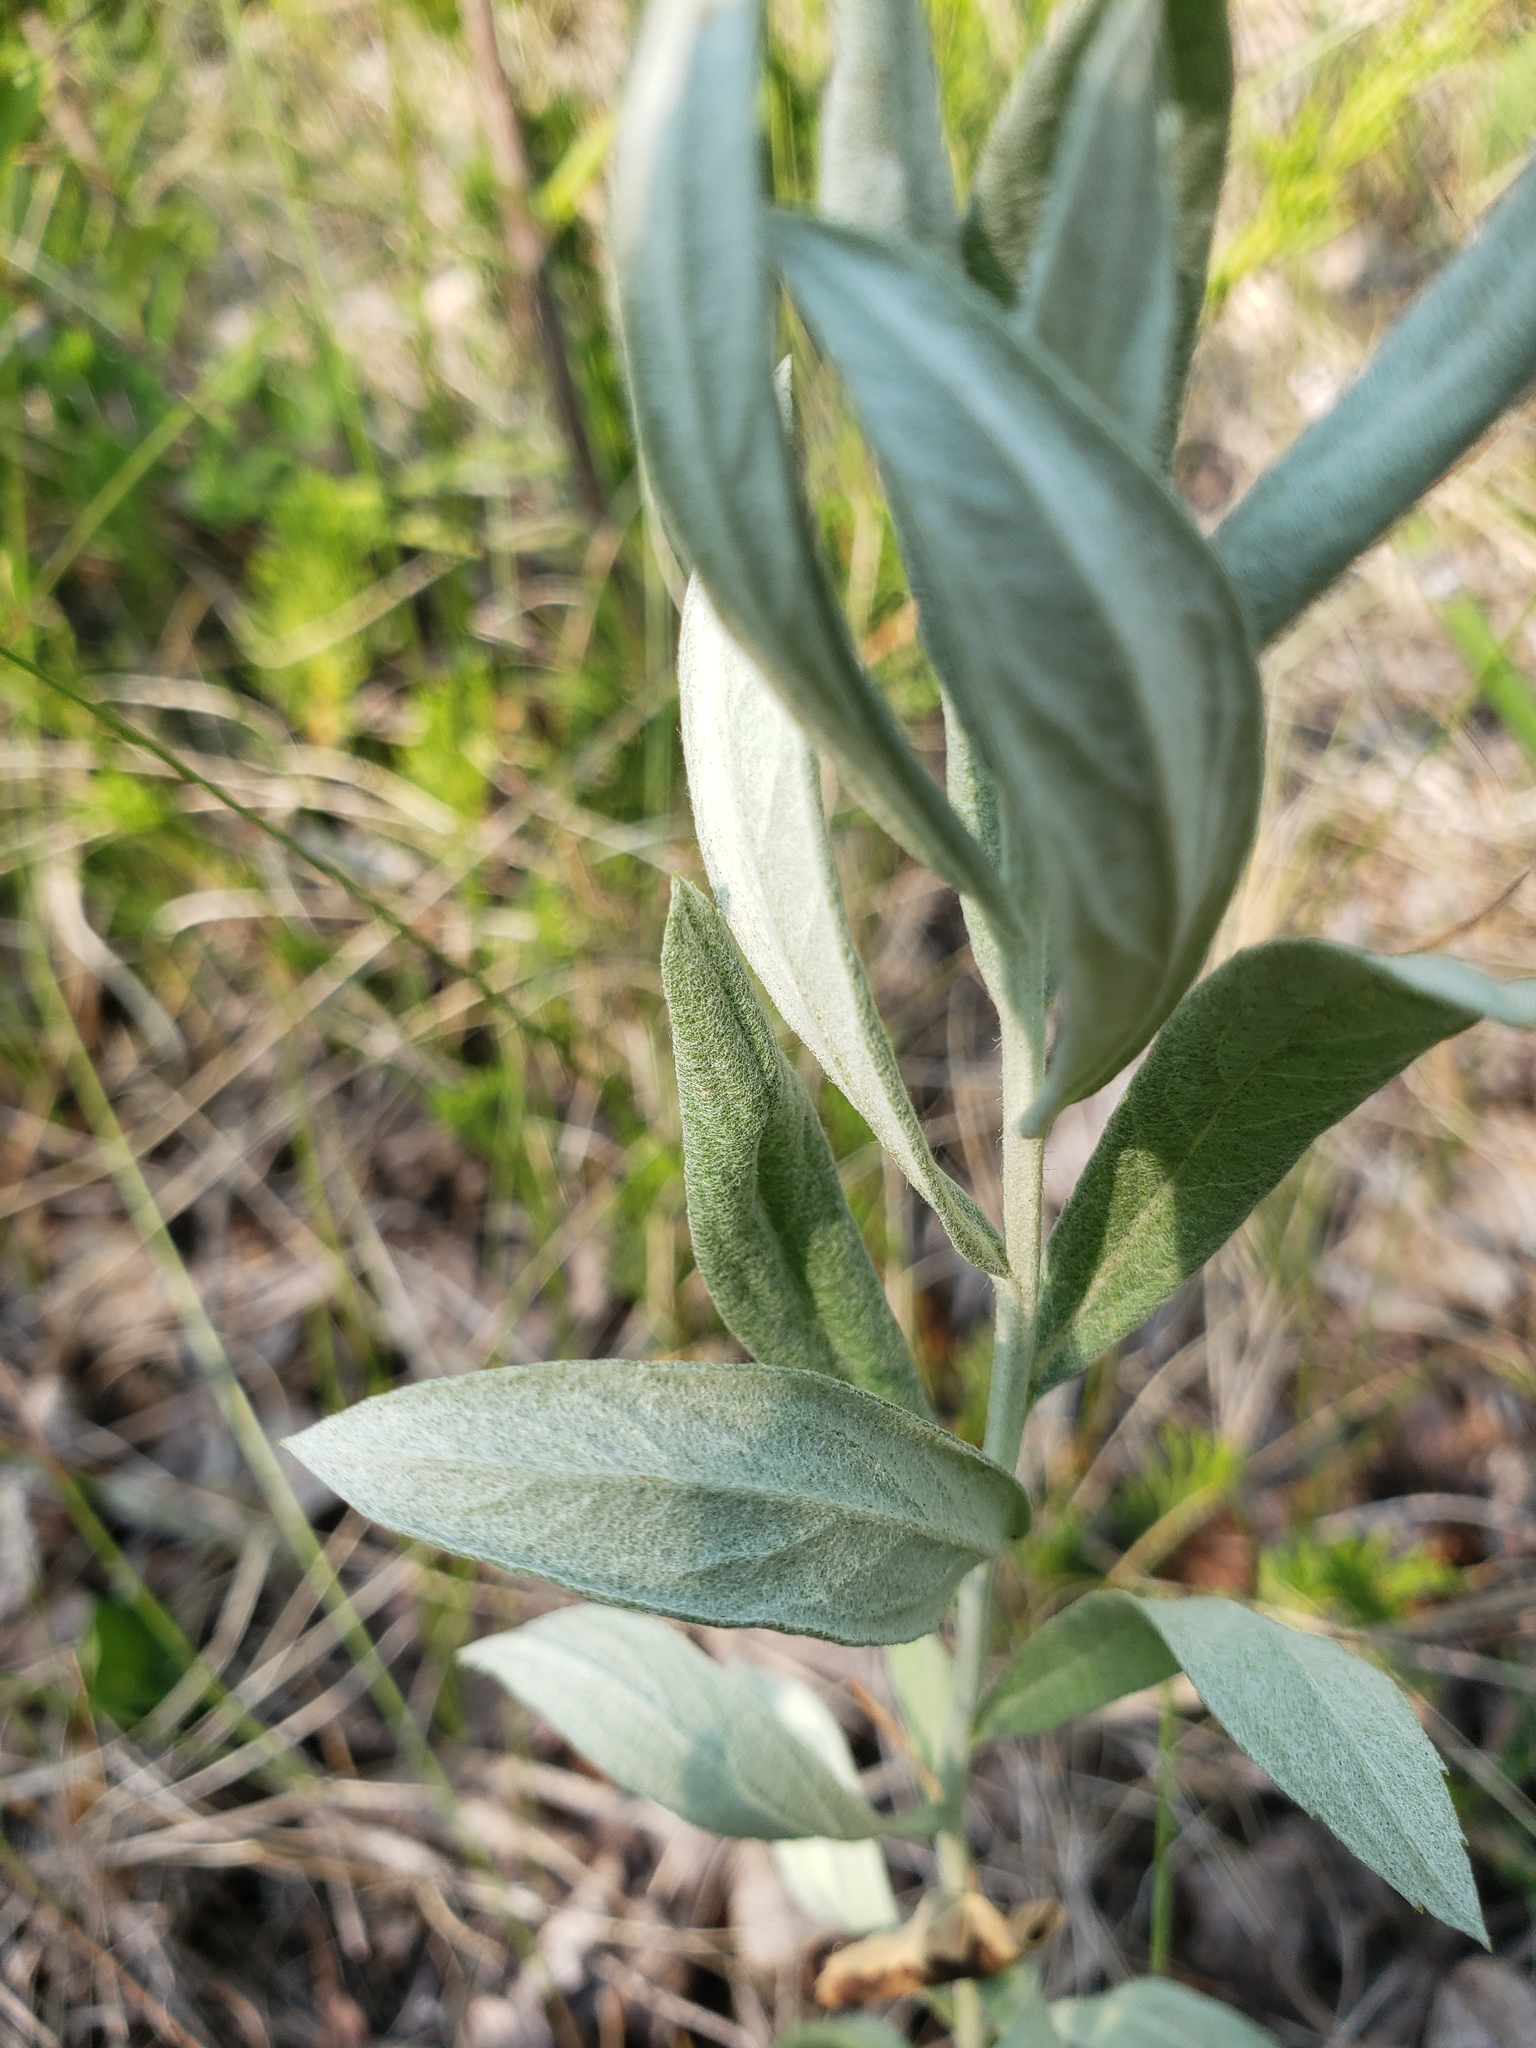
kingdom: Plantae
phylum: Tracheophyta
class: Magnoliopsida
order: Asterales
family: Asteraceae
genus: Artemisia
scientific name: Artemisia ludoviciana
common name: Western mugwort
